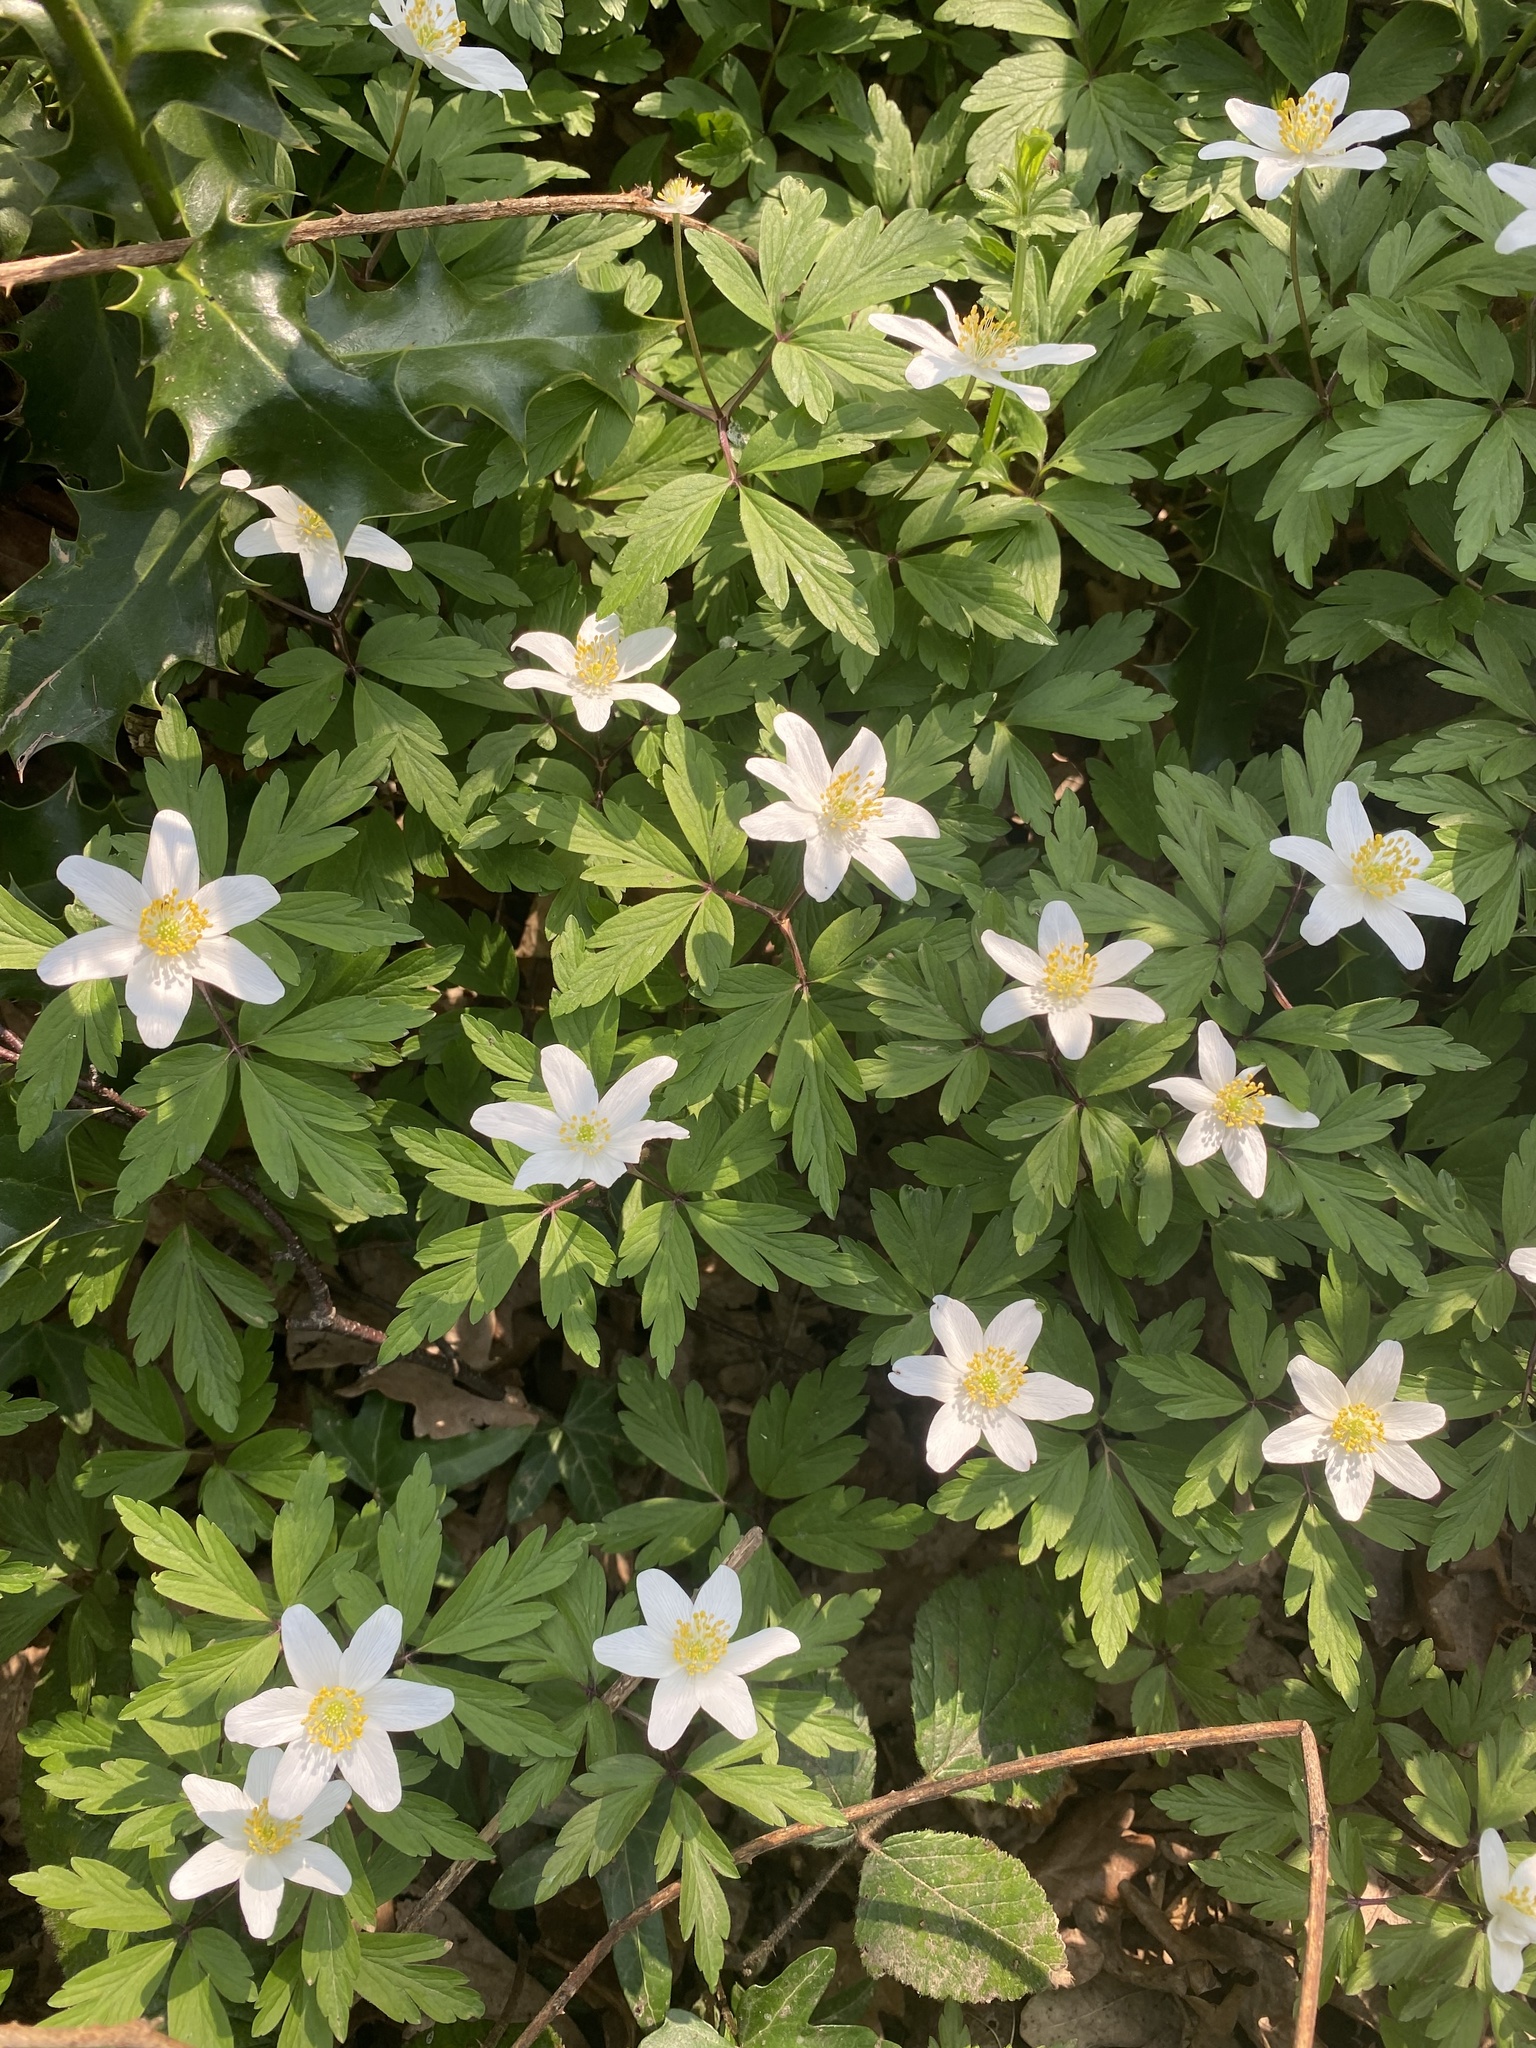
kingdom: Plantae
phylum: Tracheophyta
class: Magnoliopsida
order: Ranunculales
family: Ranunculaceae
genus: Anemone
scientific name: Anemone nemorosa
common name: Wood anemone
